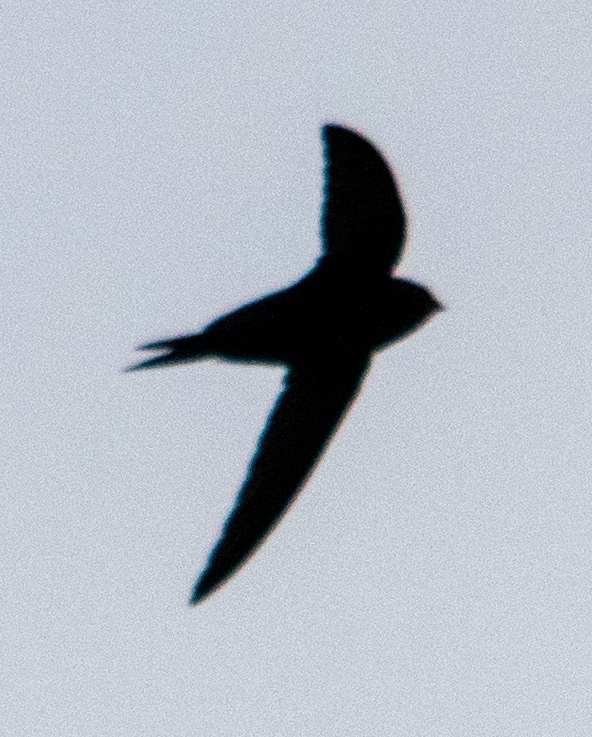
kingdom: Animalia
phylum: Chordata
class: Aves
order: Apodiformes
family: Apodidae
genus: Apus
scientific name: Apus apus
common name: Common swift
